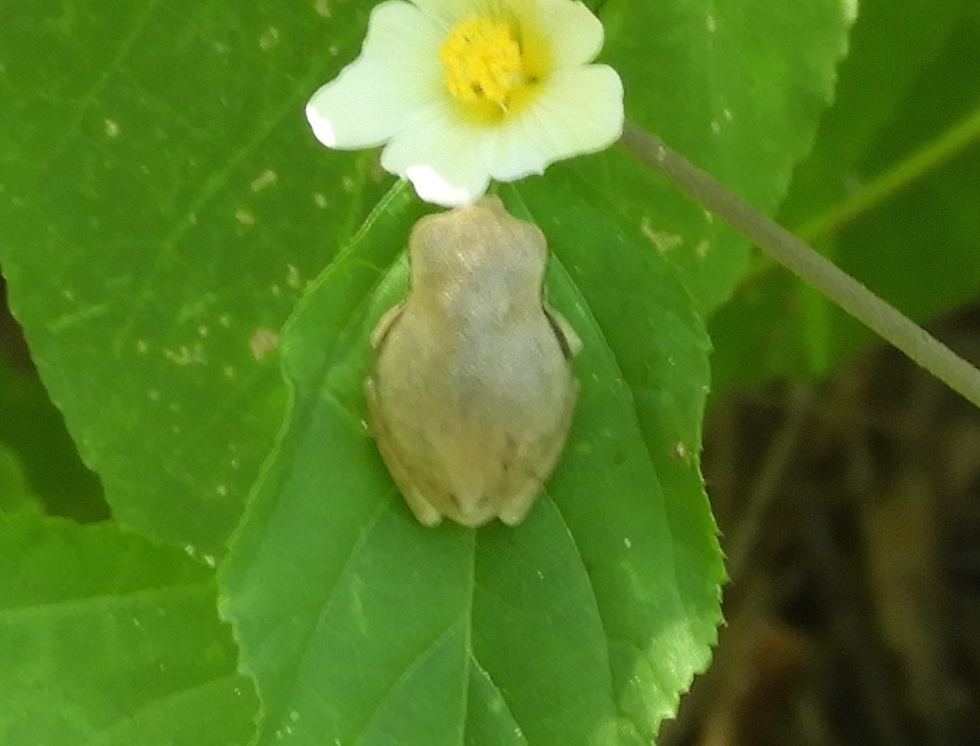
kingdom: Animalia
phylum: Chordata
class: Amphibia
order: Anura
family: Hylidae
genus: Tlalocohyla
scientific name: Tlalocohyla smithii
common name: Dwarf mexican treefrog
